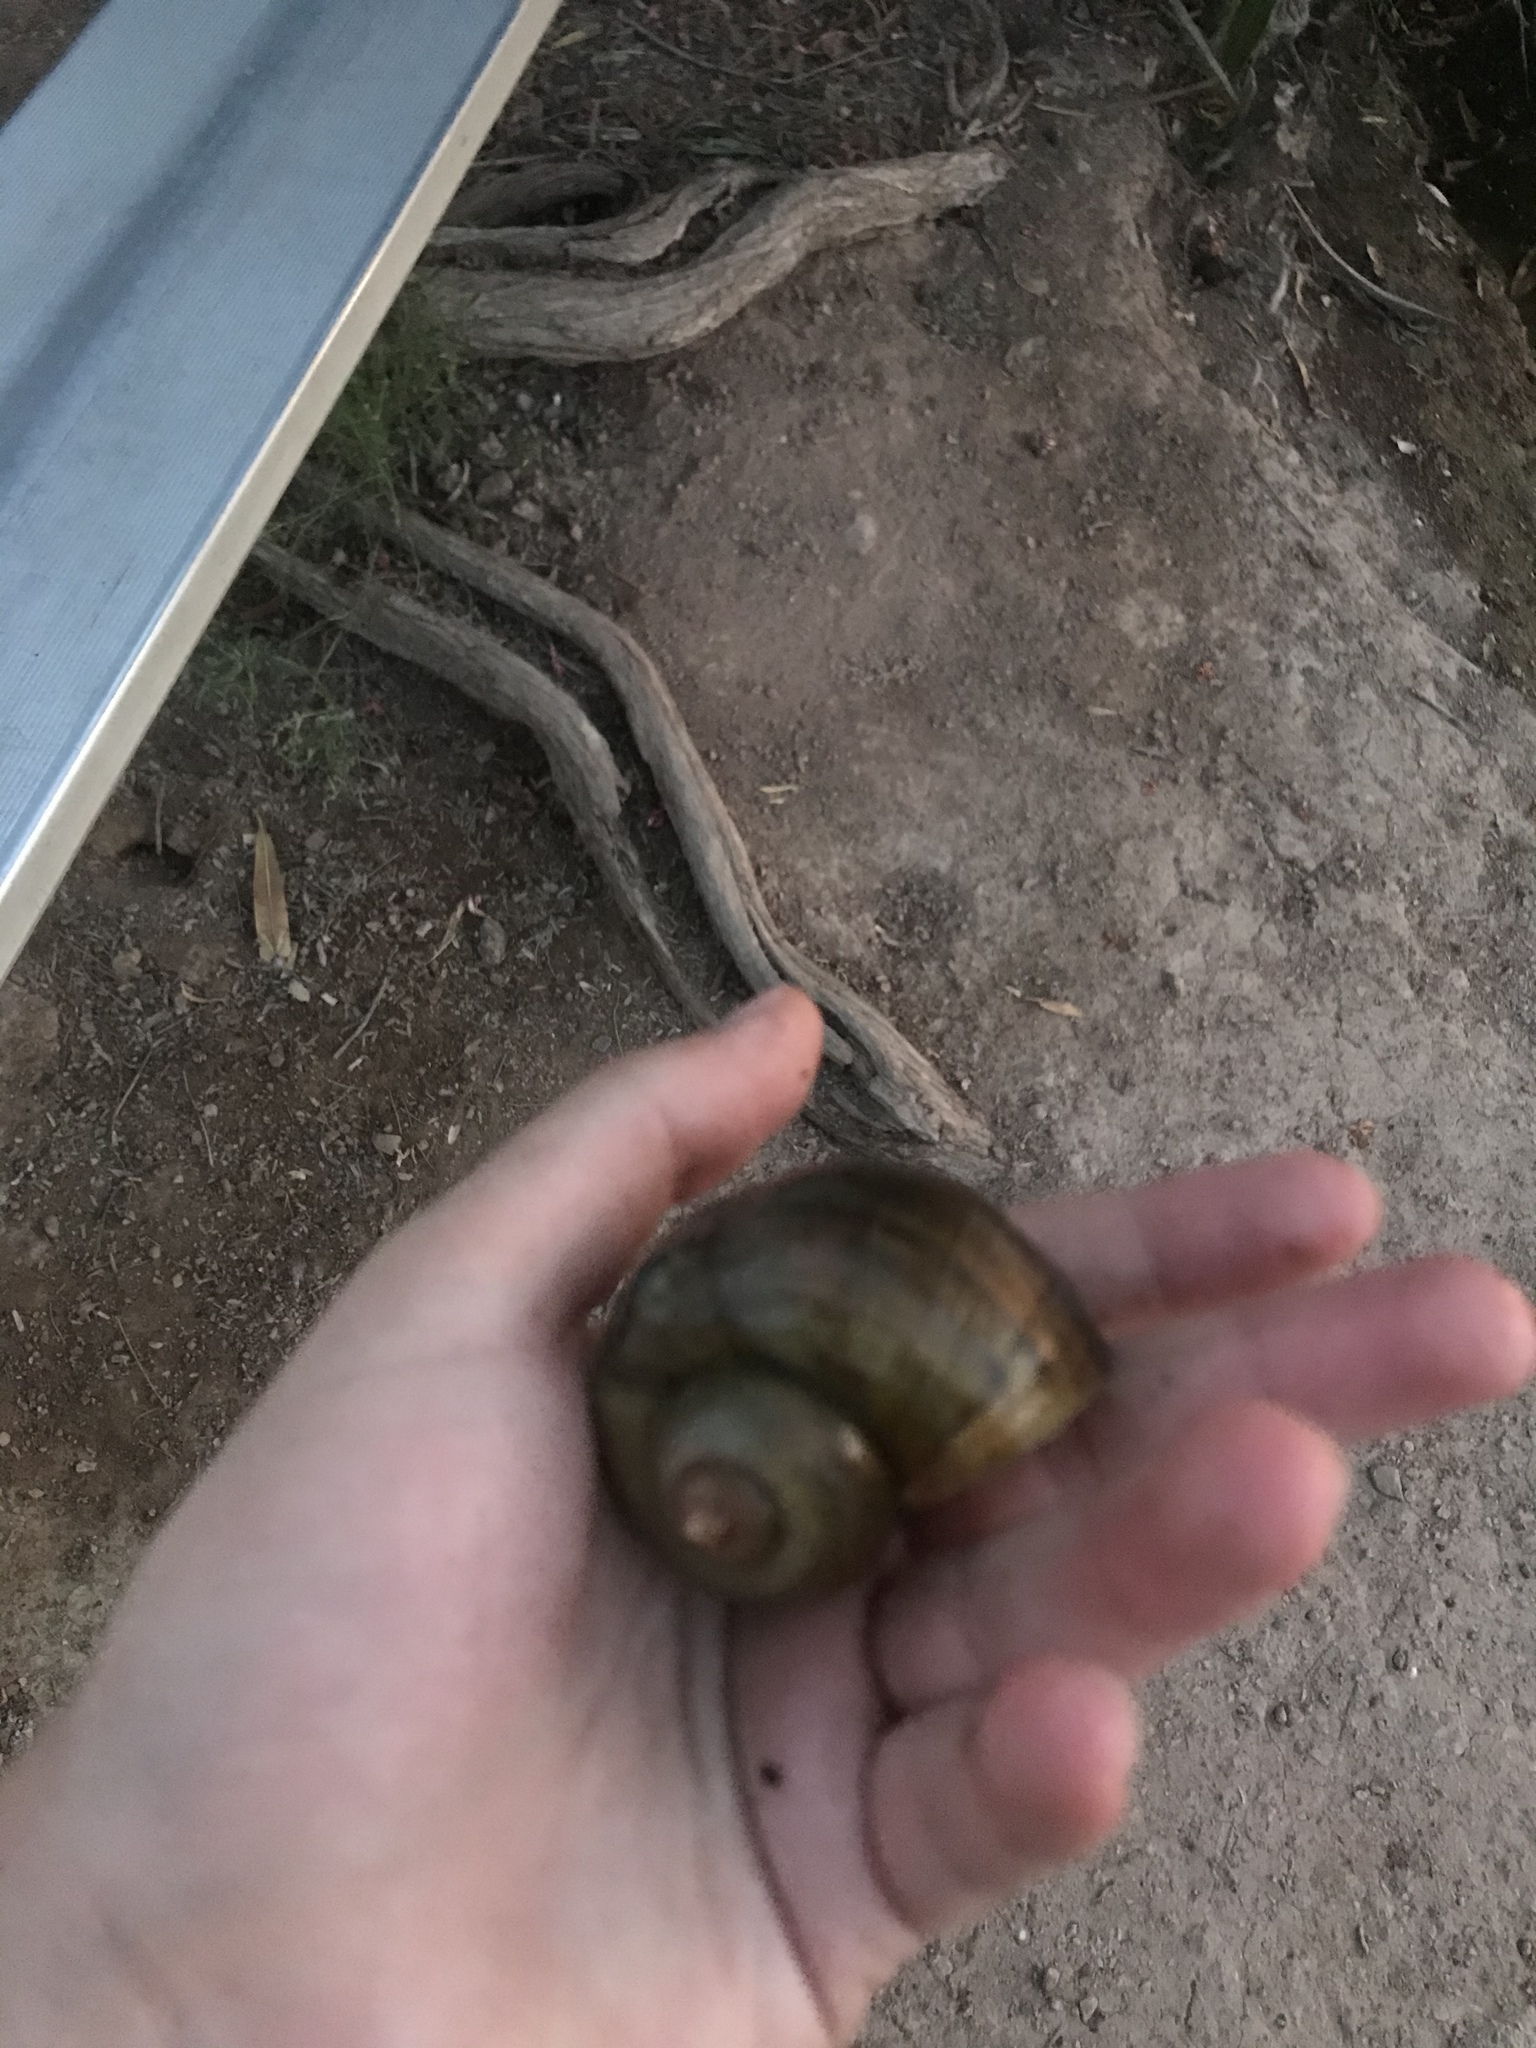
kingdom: Animalia
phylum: Mollusca
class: Gastropoda
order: Architaenioglossa
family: Ampullariidae
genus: Pomacea
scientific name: Pomacea canaliculata
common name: Channeled applesnail
